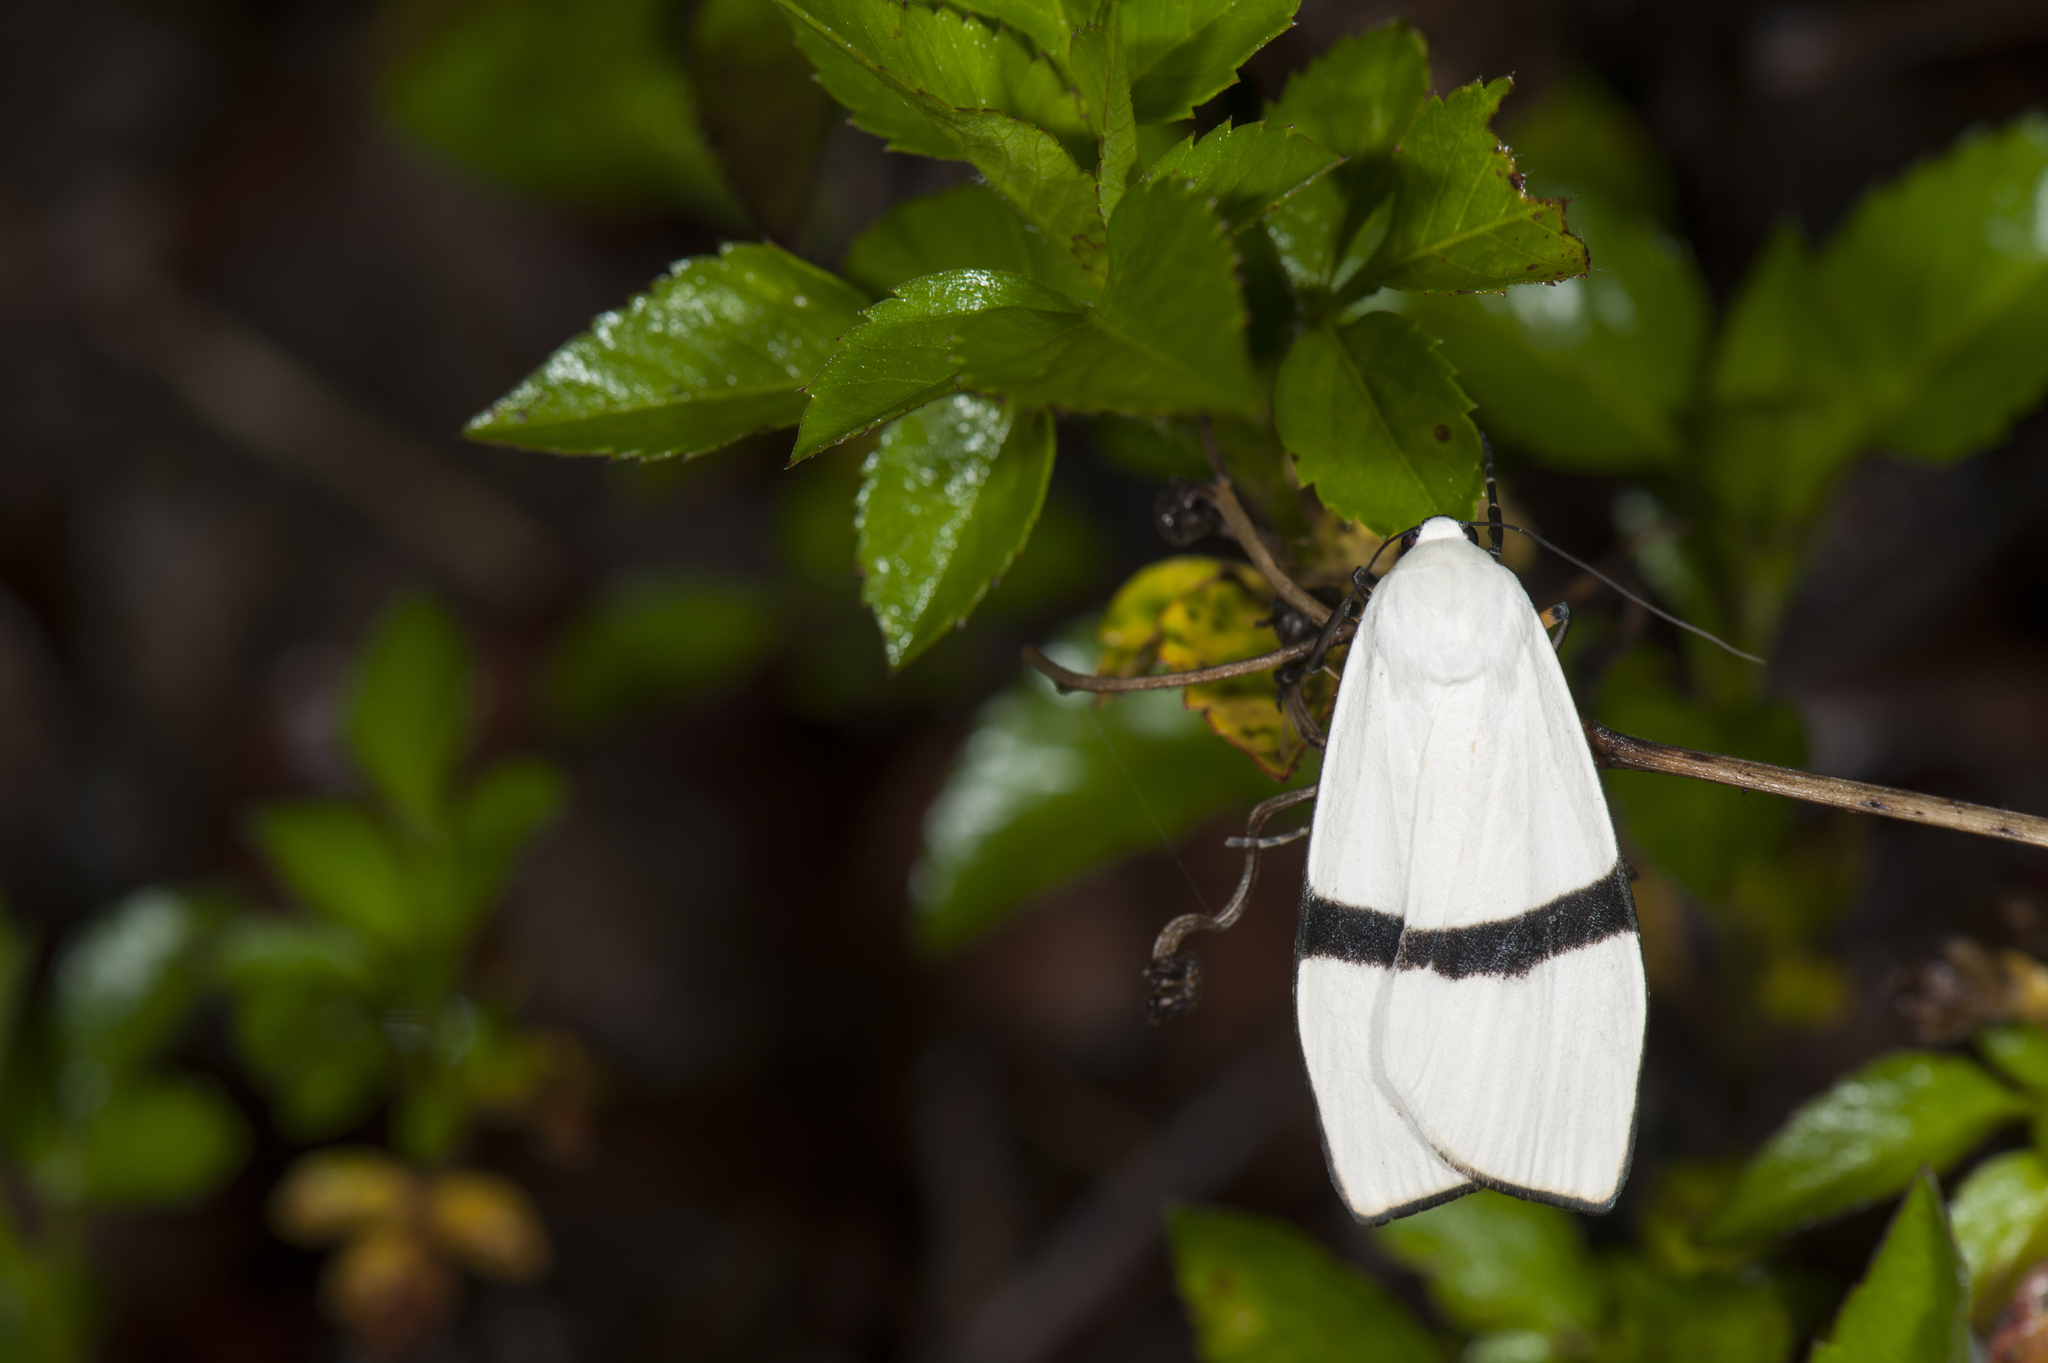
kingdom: Animalia
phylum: Arthropoda
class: Insecta
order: Lepidoptera
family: Erebidae
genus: Vamuna
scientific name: Vamuna alboluteola
